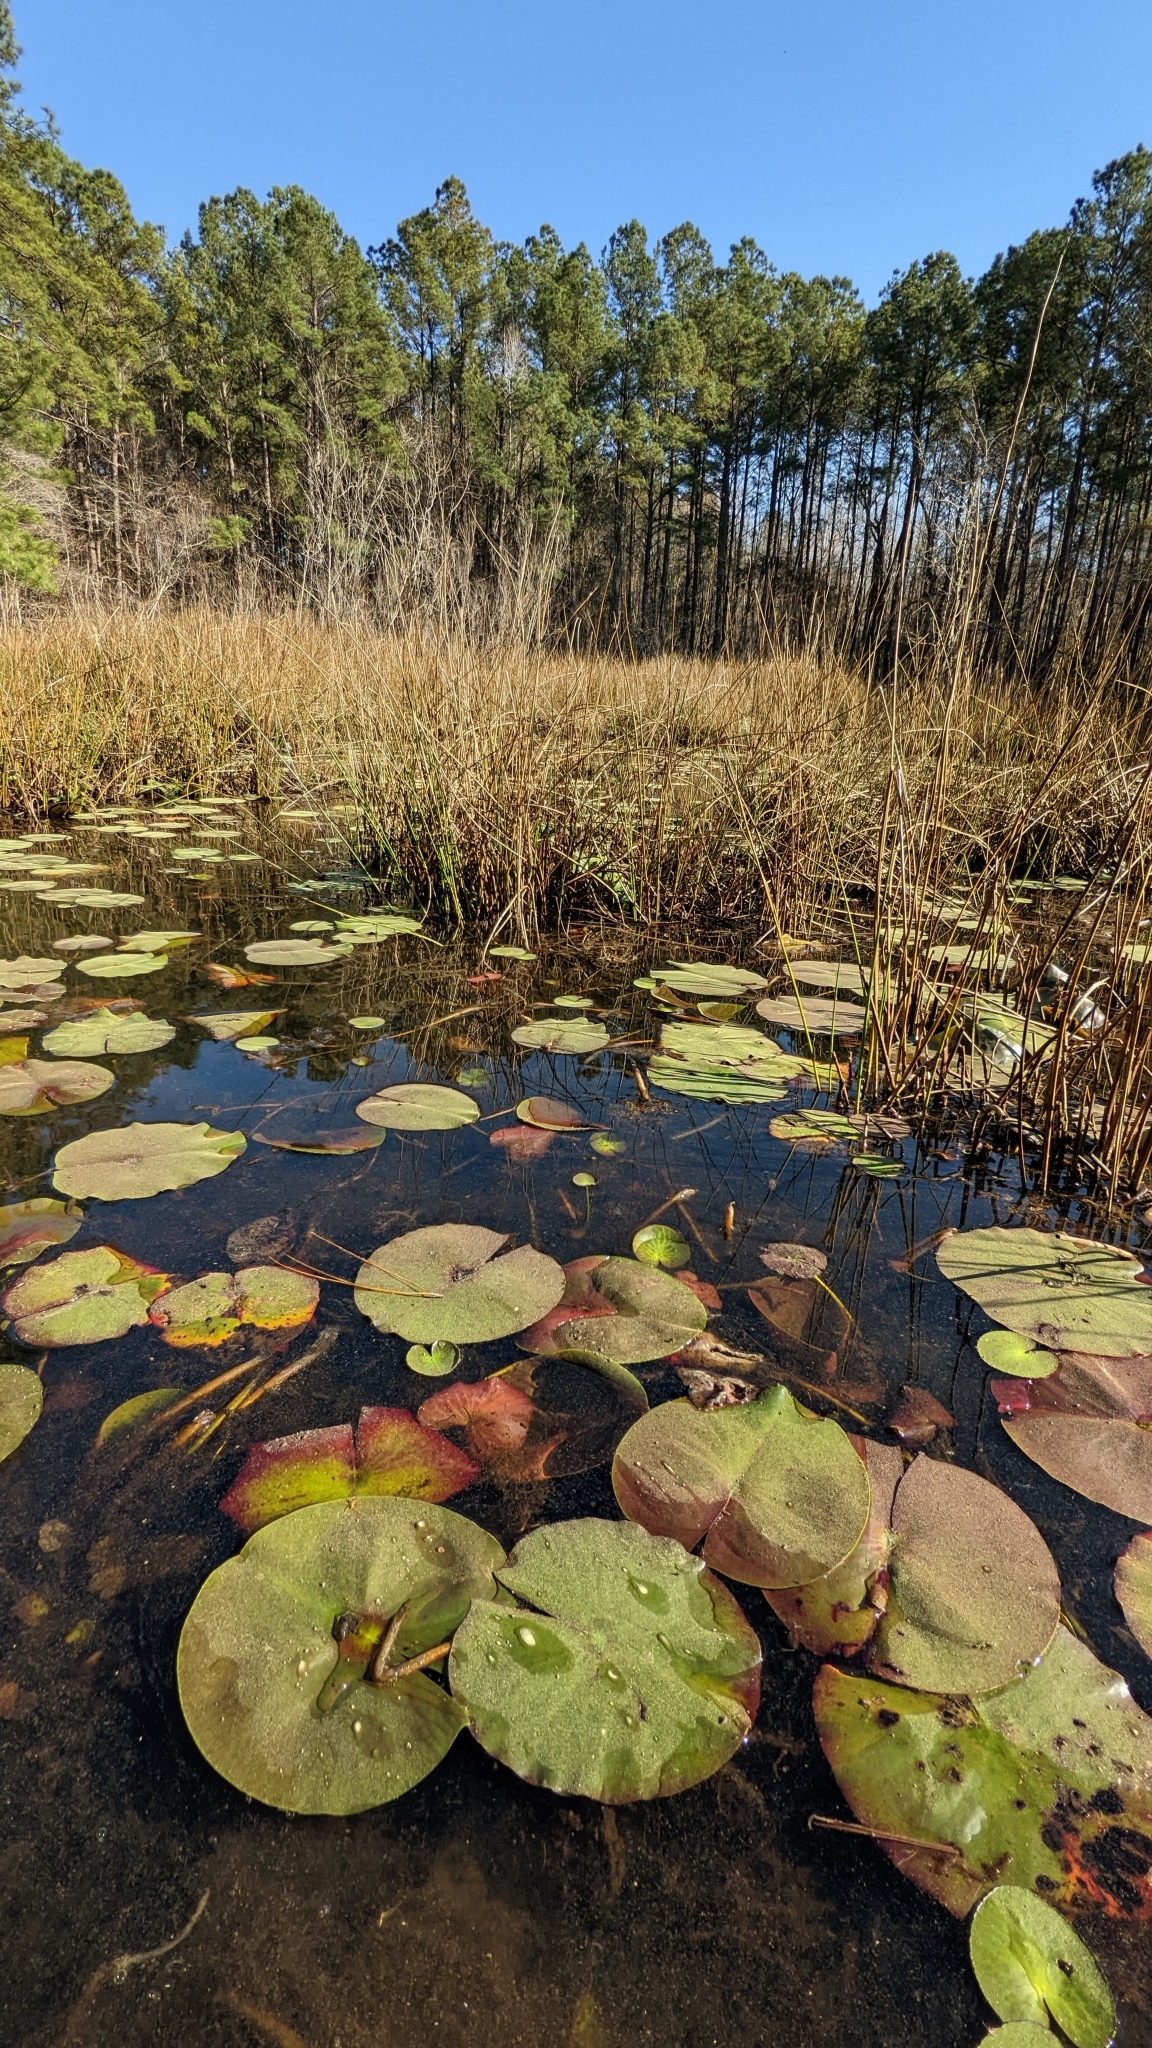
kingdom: Plantae
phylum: Tracheophyta
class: Magnoliopsida
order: Nymphaeales
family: Nymphaeaceae
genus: Nymphaea
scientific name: Nymphaea odorata
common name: Fragrant water-lily
